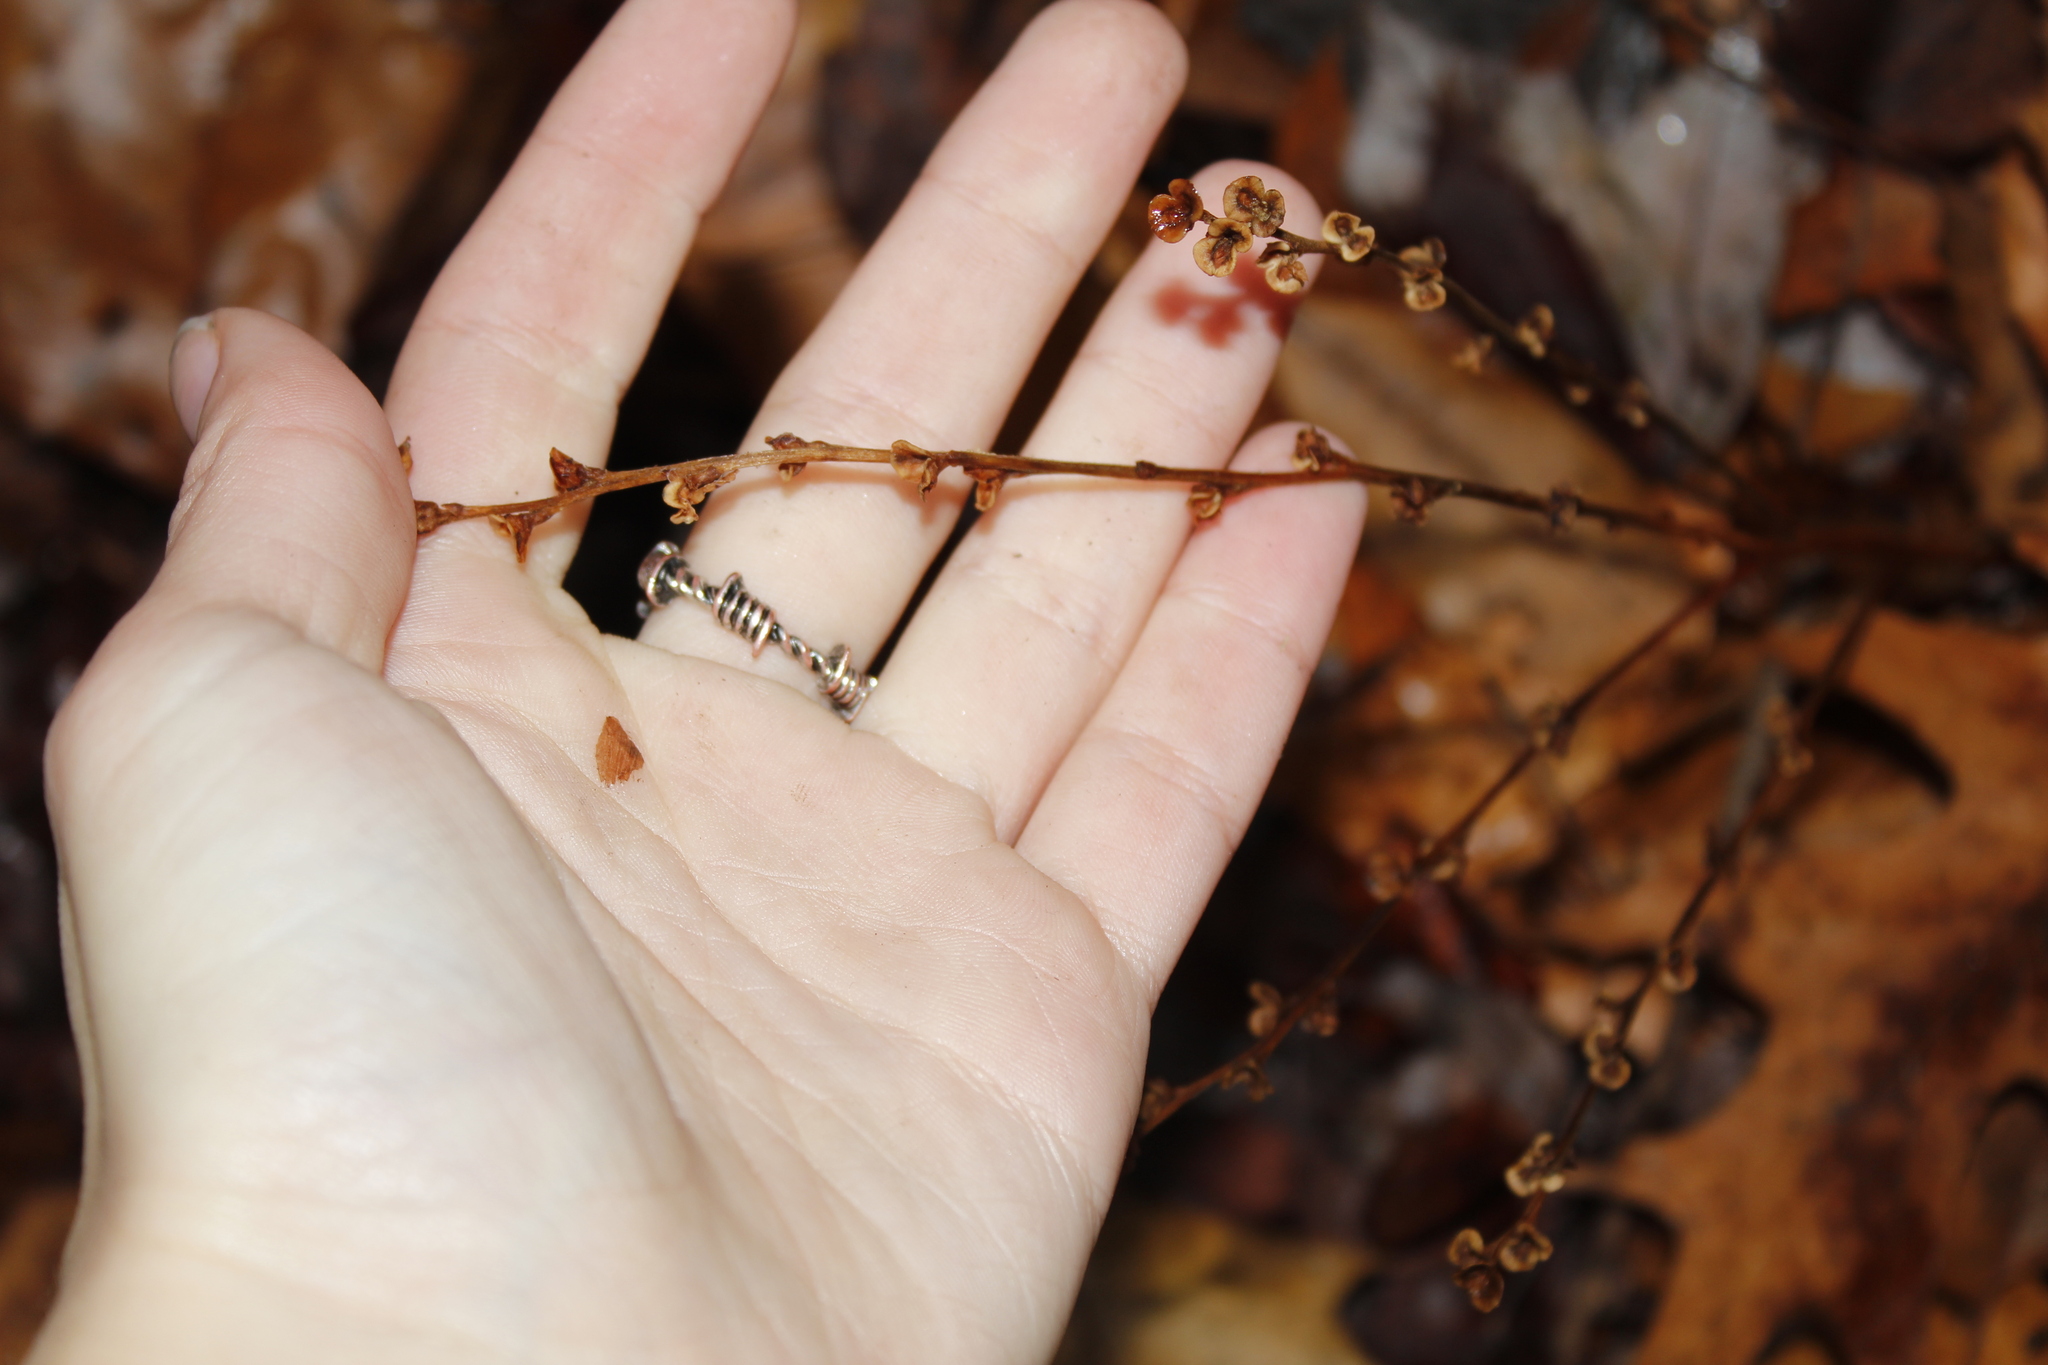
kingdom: Plantae
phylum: Tracheophyta
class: Magnoliopsida
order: Lamiales
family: Orobanchaceae
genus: Epifagus
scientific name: Epifagus virginiana
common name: Beechdrops
